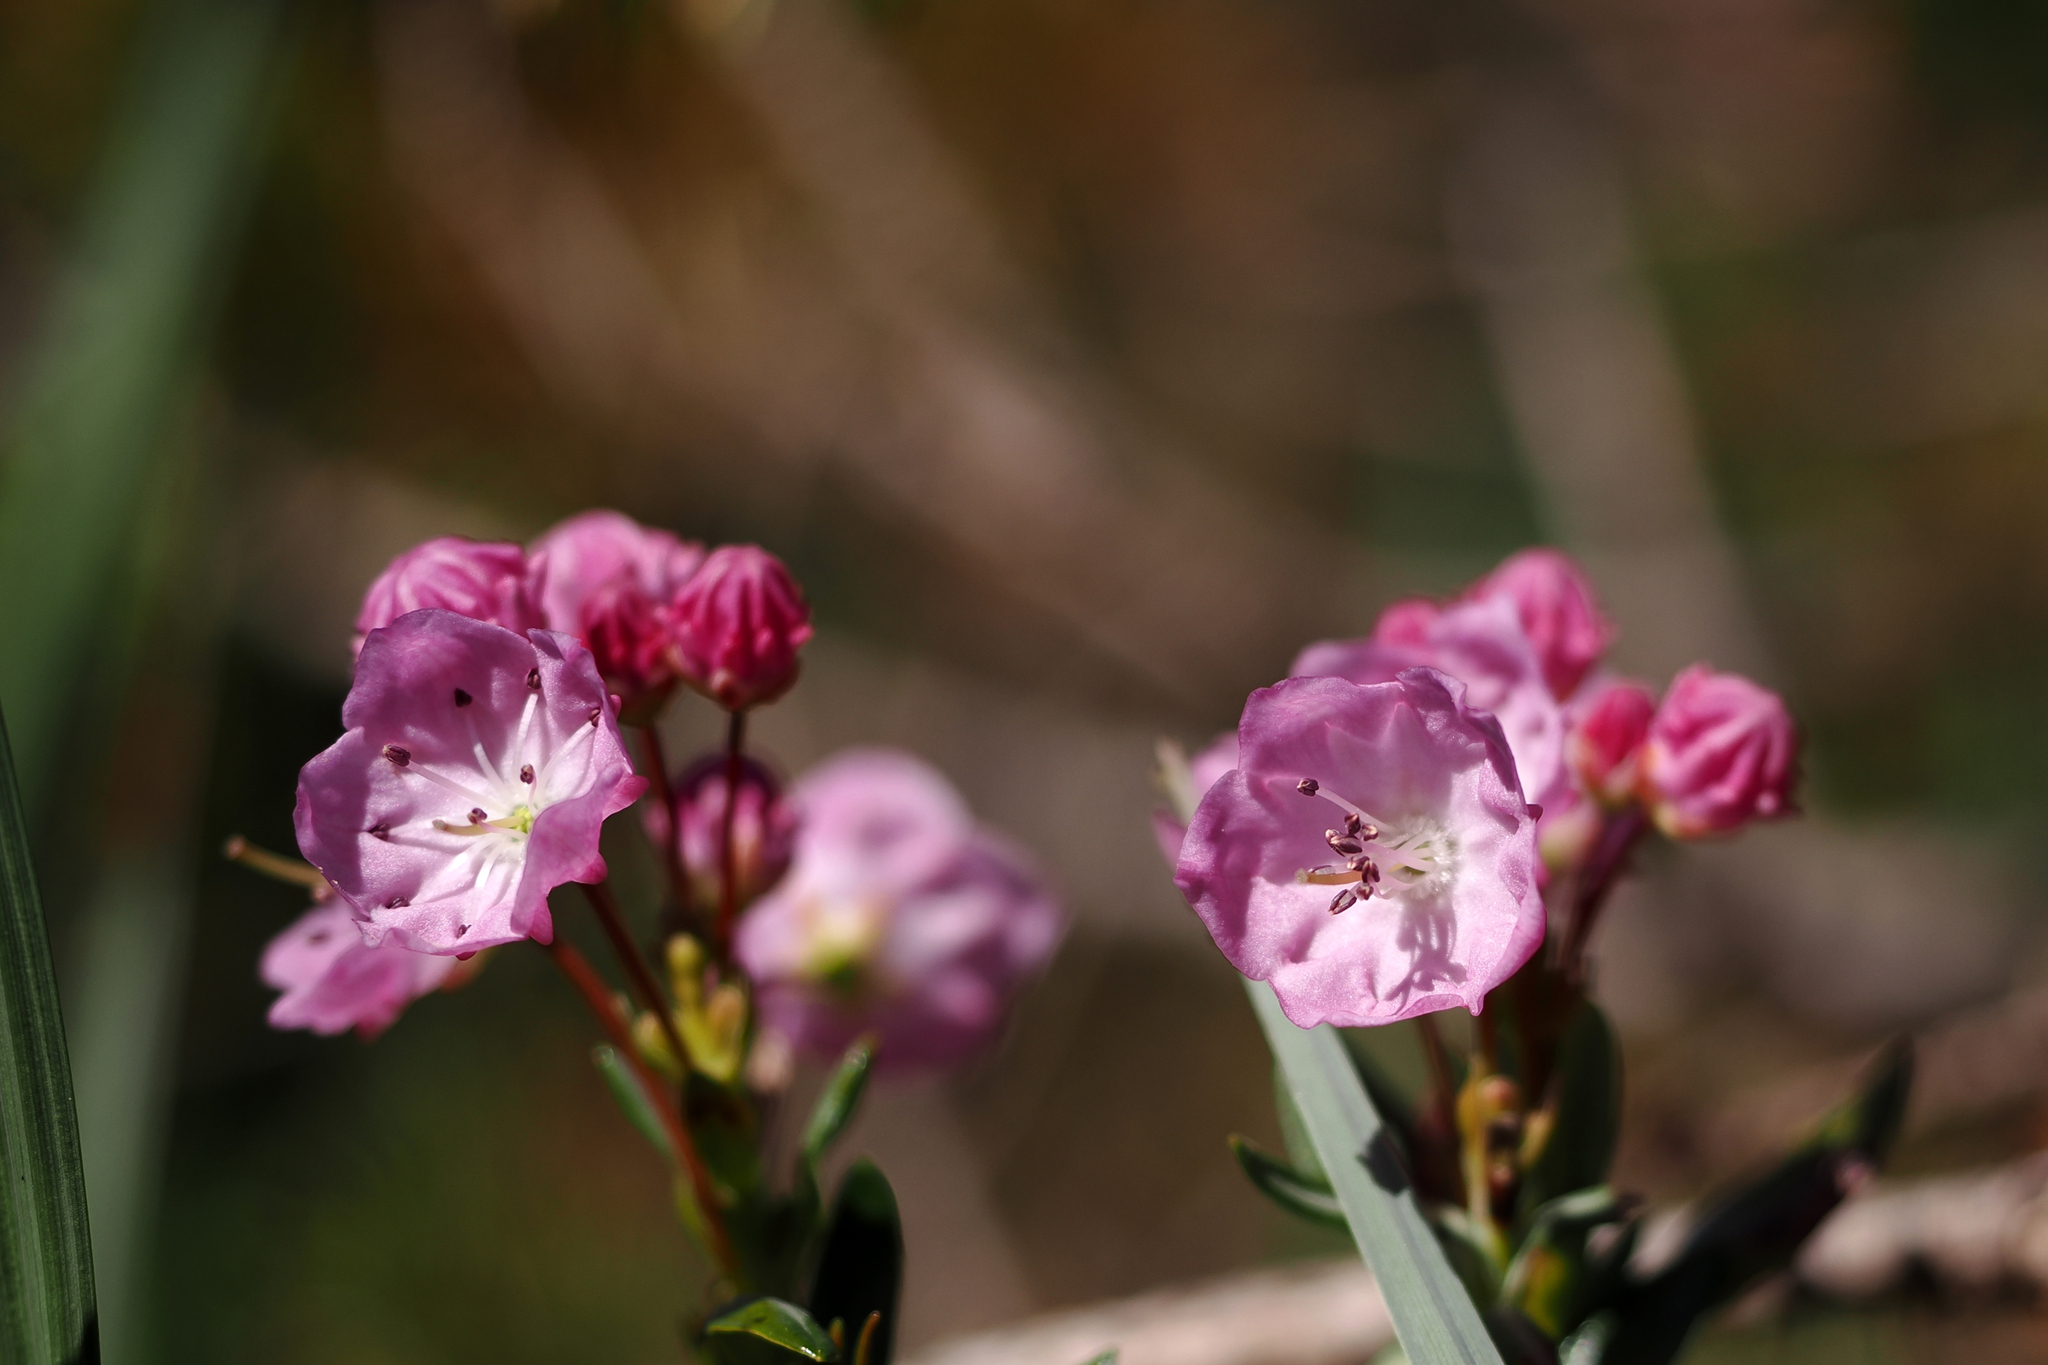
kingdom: Plantae
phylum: Tracheophyta
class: Magnoliopsida
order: Ericales
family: Ericaceae
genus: Kalmia
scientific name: Kalmia microphylla
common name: Alpine bog laurel
